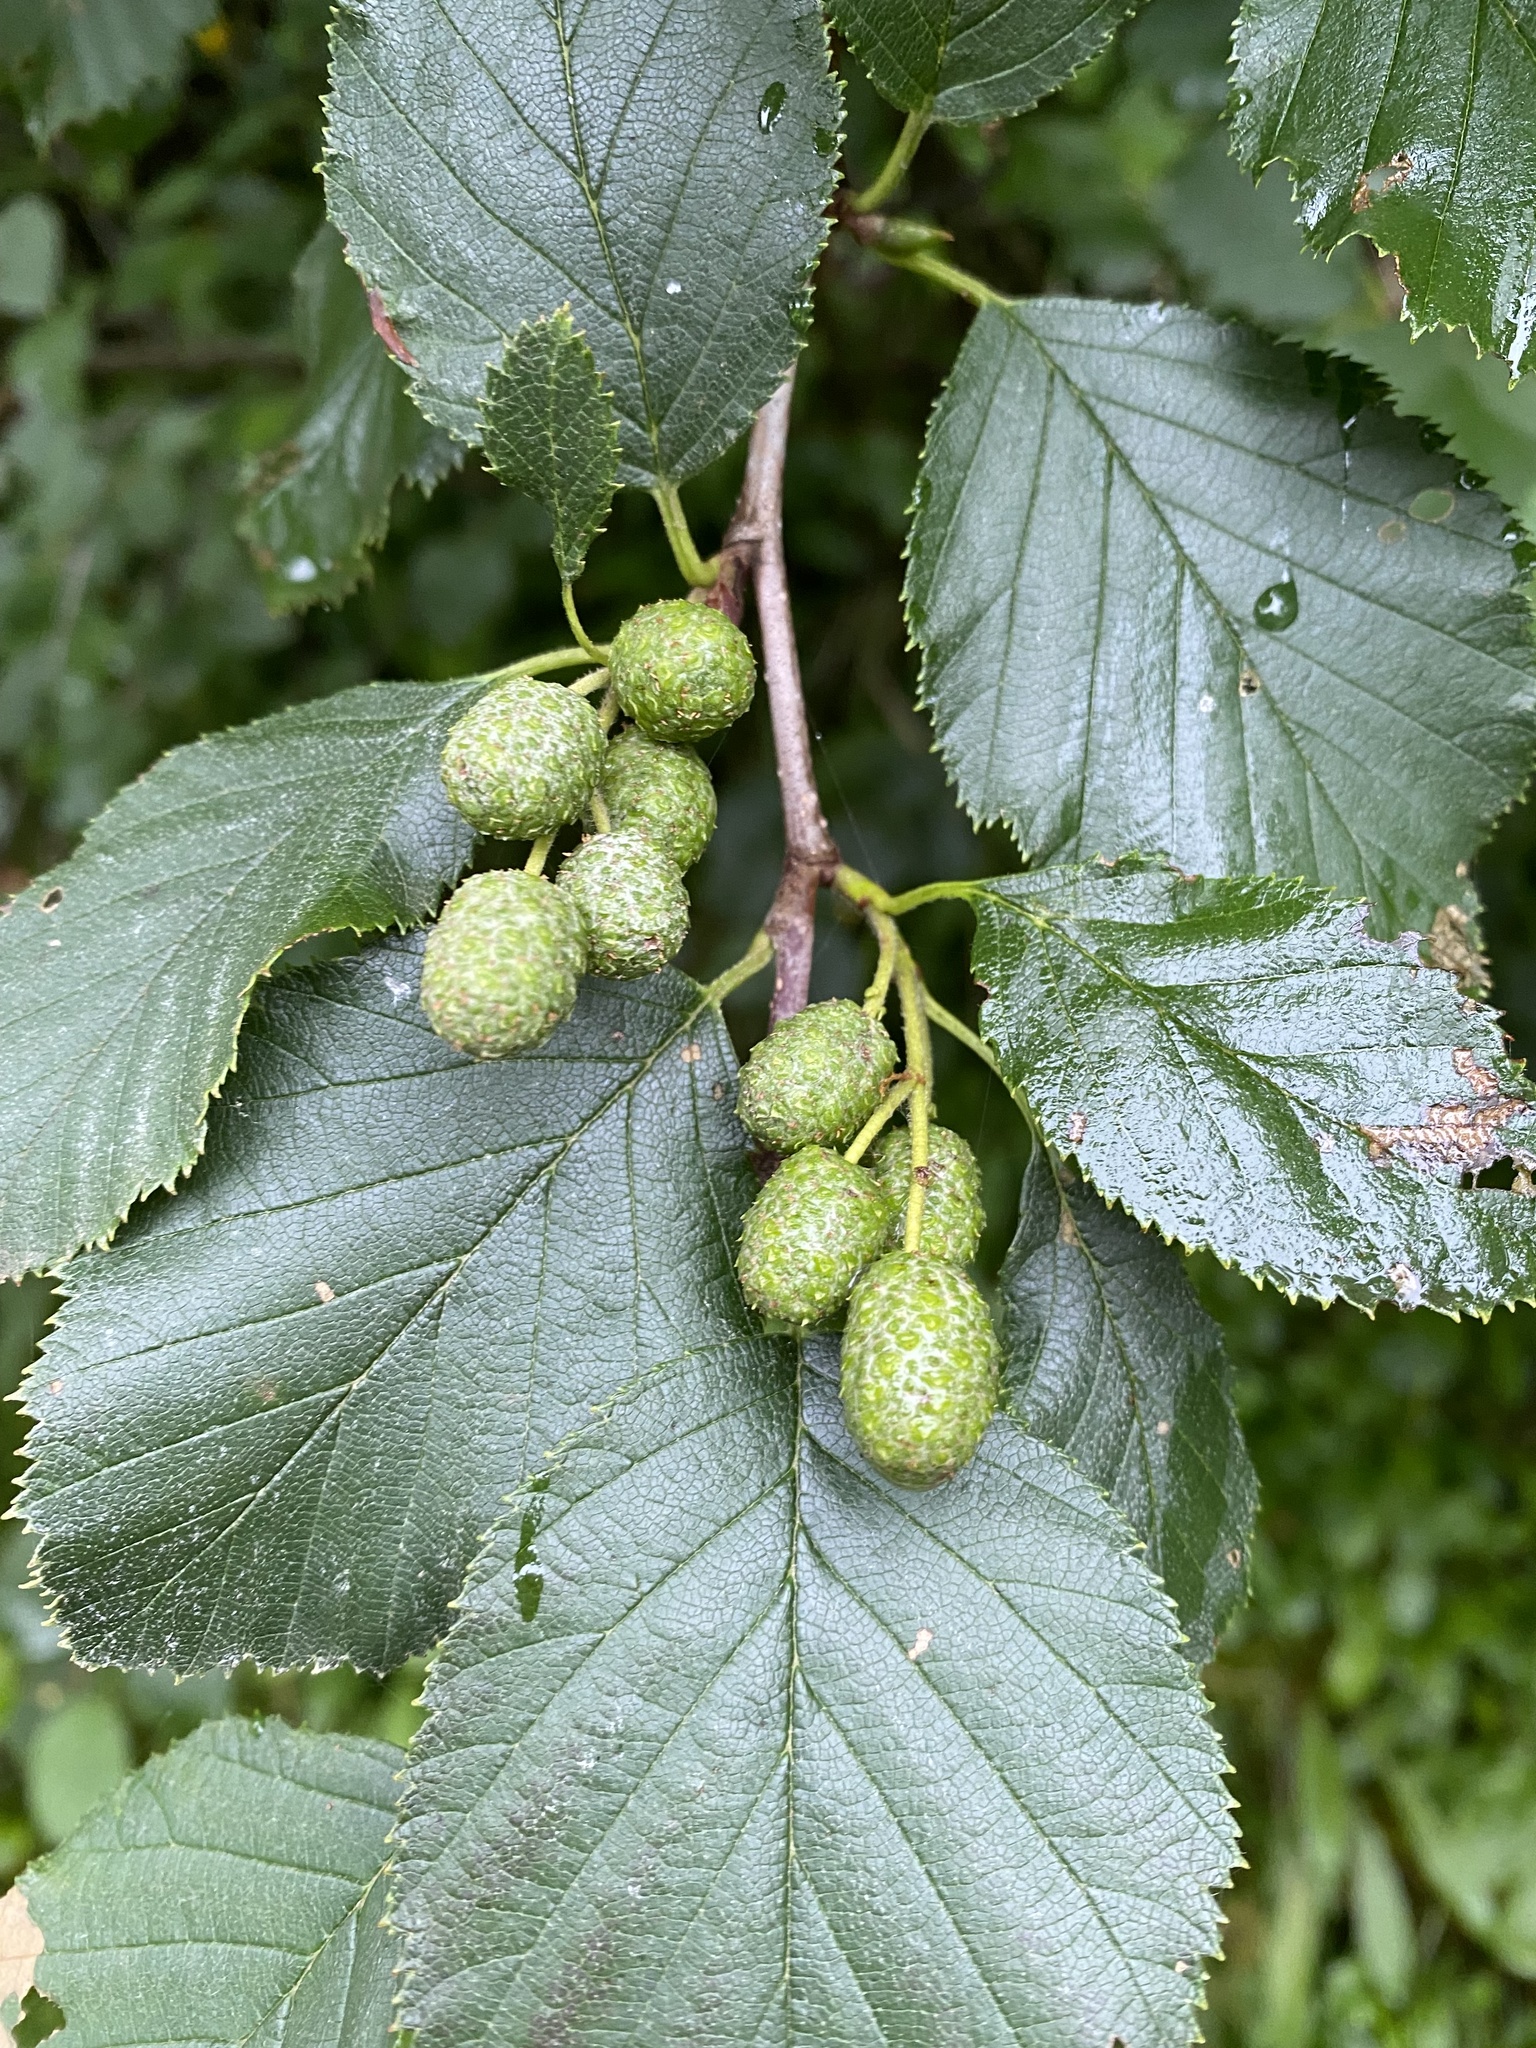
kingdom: Plantae
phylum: Tracheophyta
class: Magnoliopsida
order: Fagales
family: Betulaceae
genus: Alnus
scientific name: Alnus incana
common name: Grey alder
